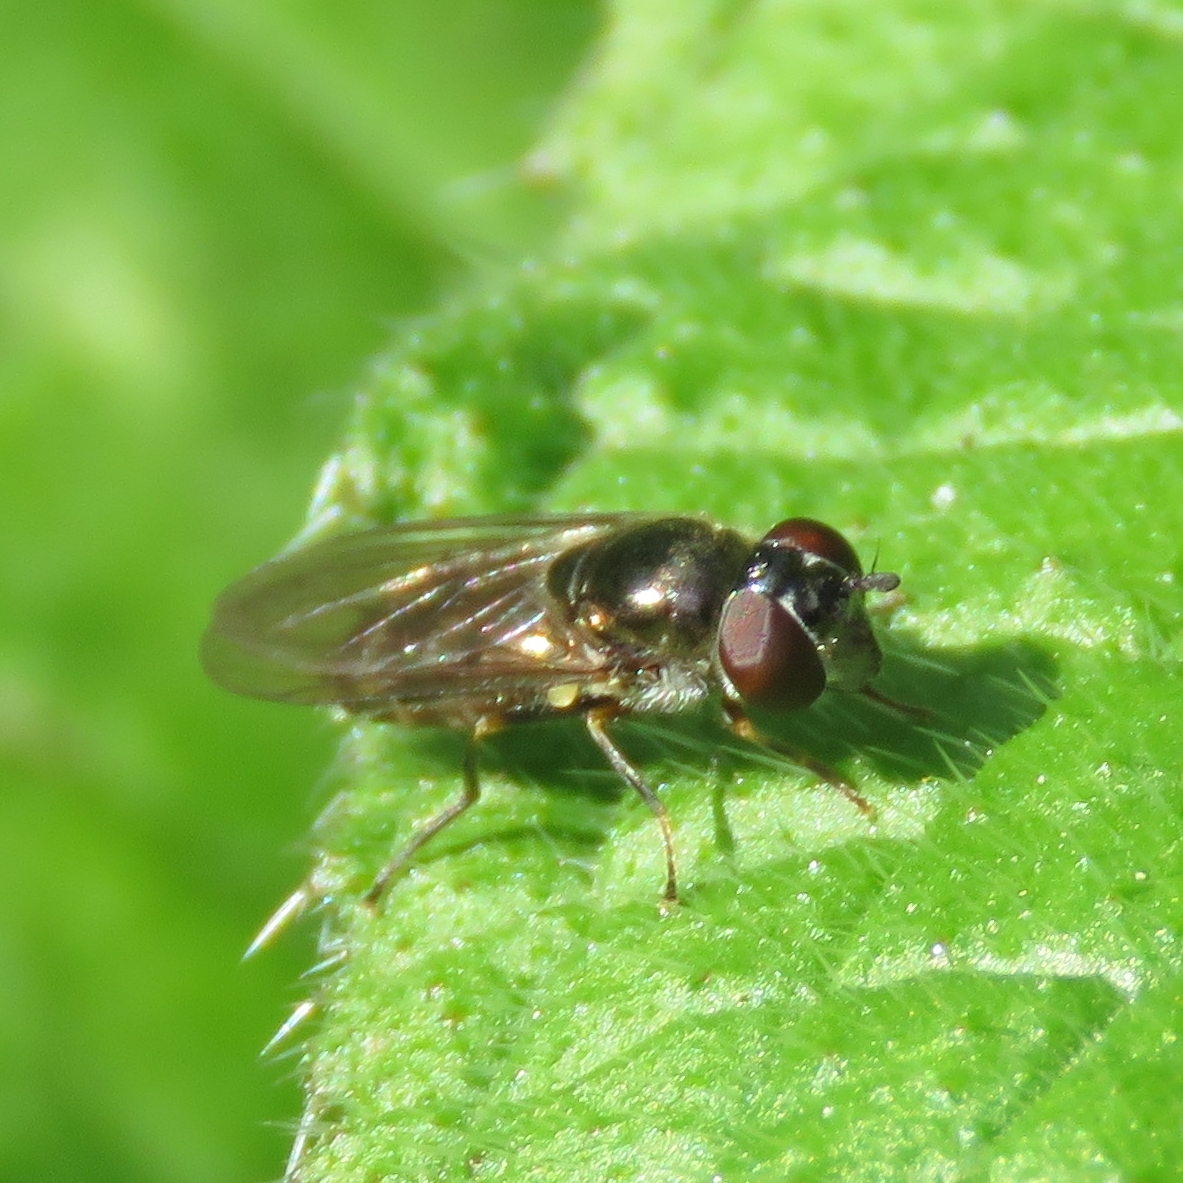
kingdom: Animalia
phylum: Arthropoda
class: Insecta
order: Diptera
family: Syrphidae
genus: Platycheirus
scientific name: Platycheirus albimanus
